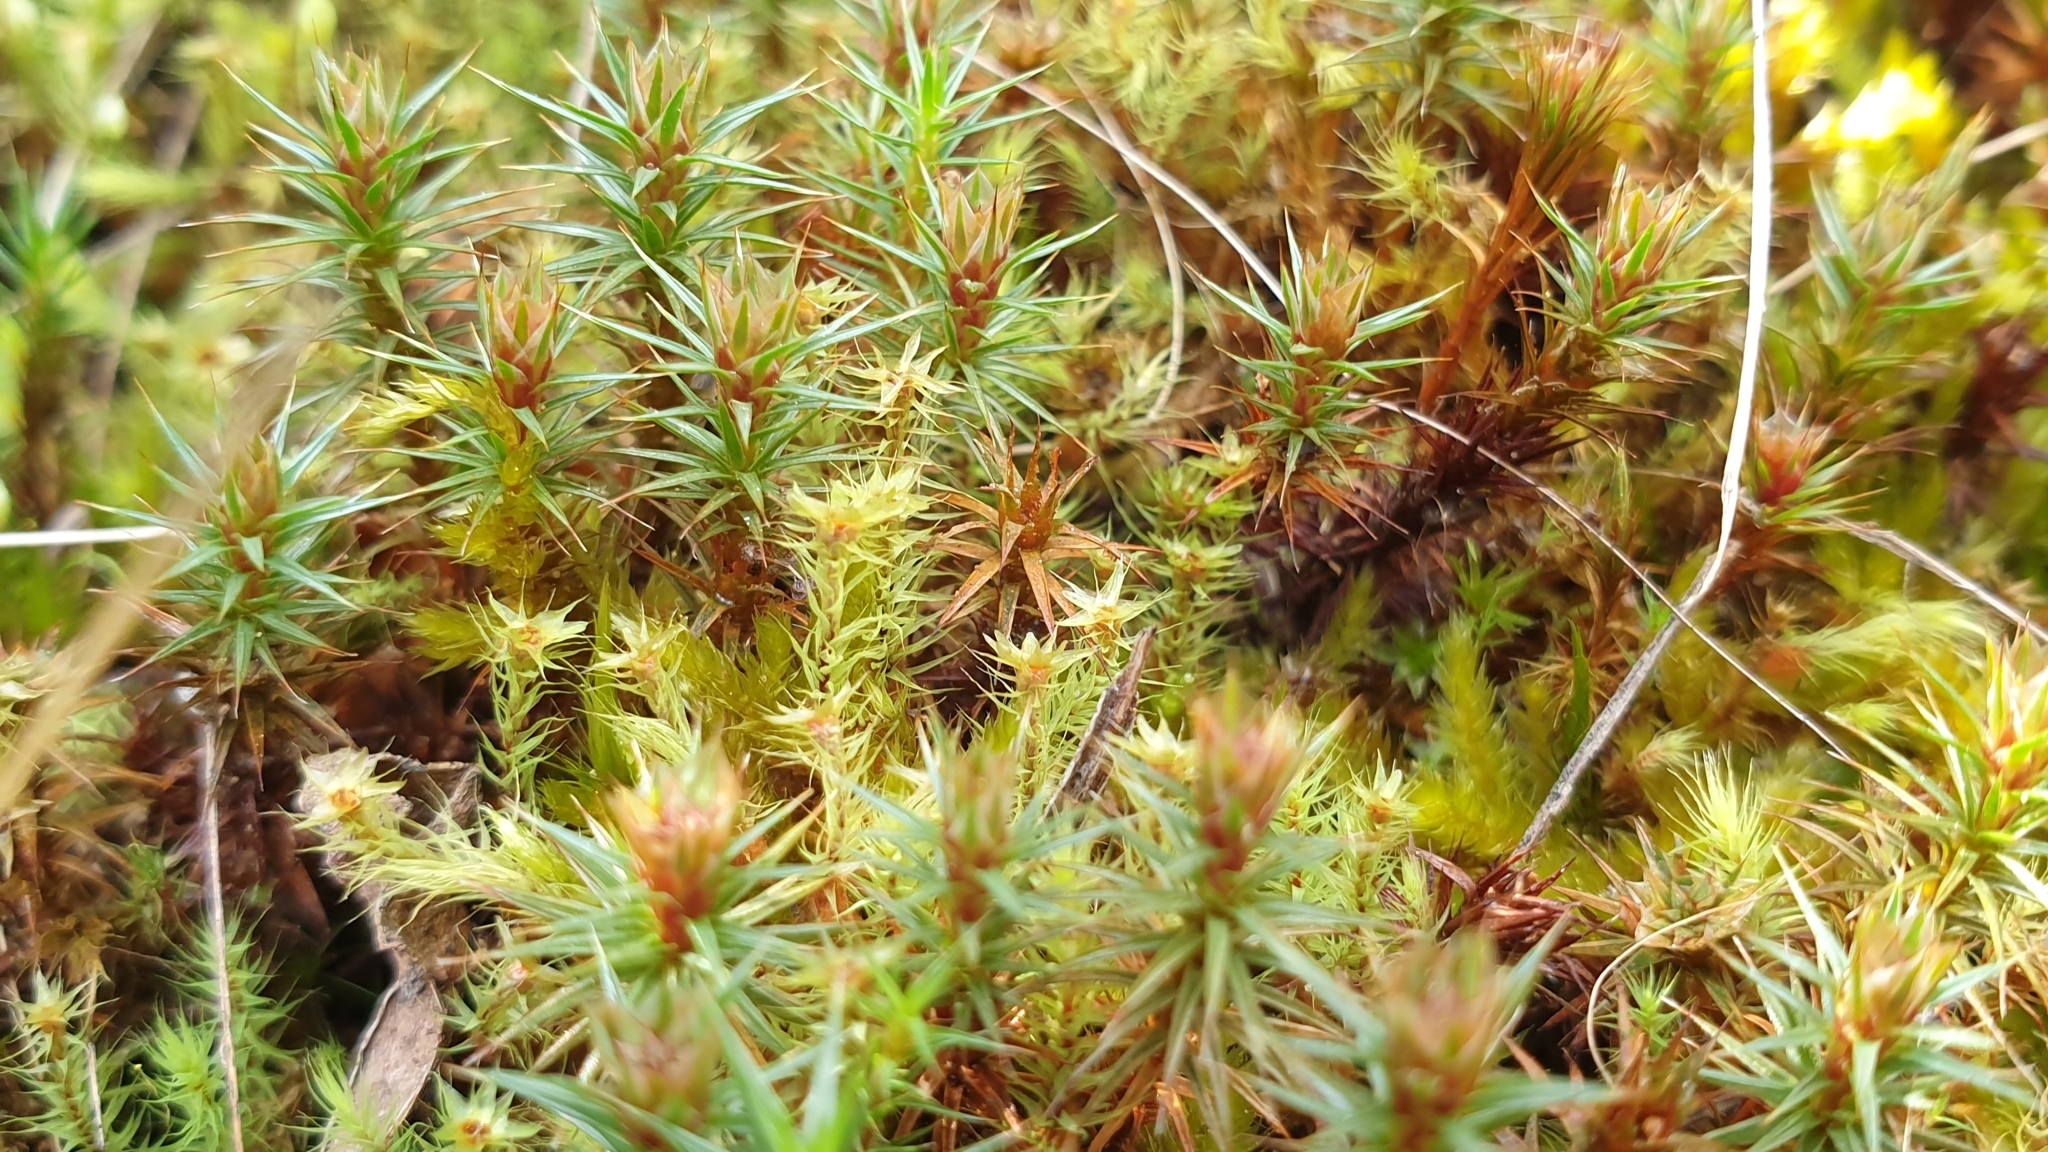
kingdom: Plantae
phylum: Bryophyta
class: Polytrichopsida
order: Polytrichales
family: Polytrichaceae
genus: Polytrichum
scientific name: Polytrichum juniperinum
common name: Juniper haircap moss
